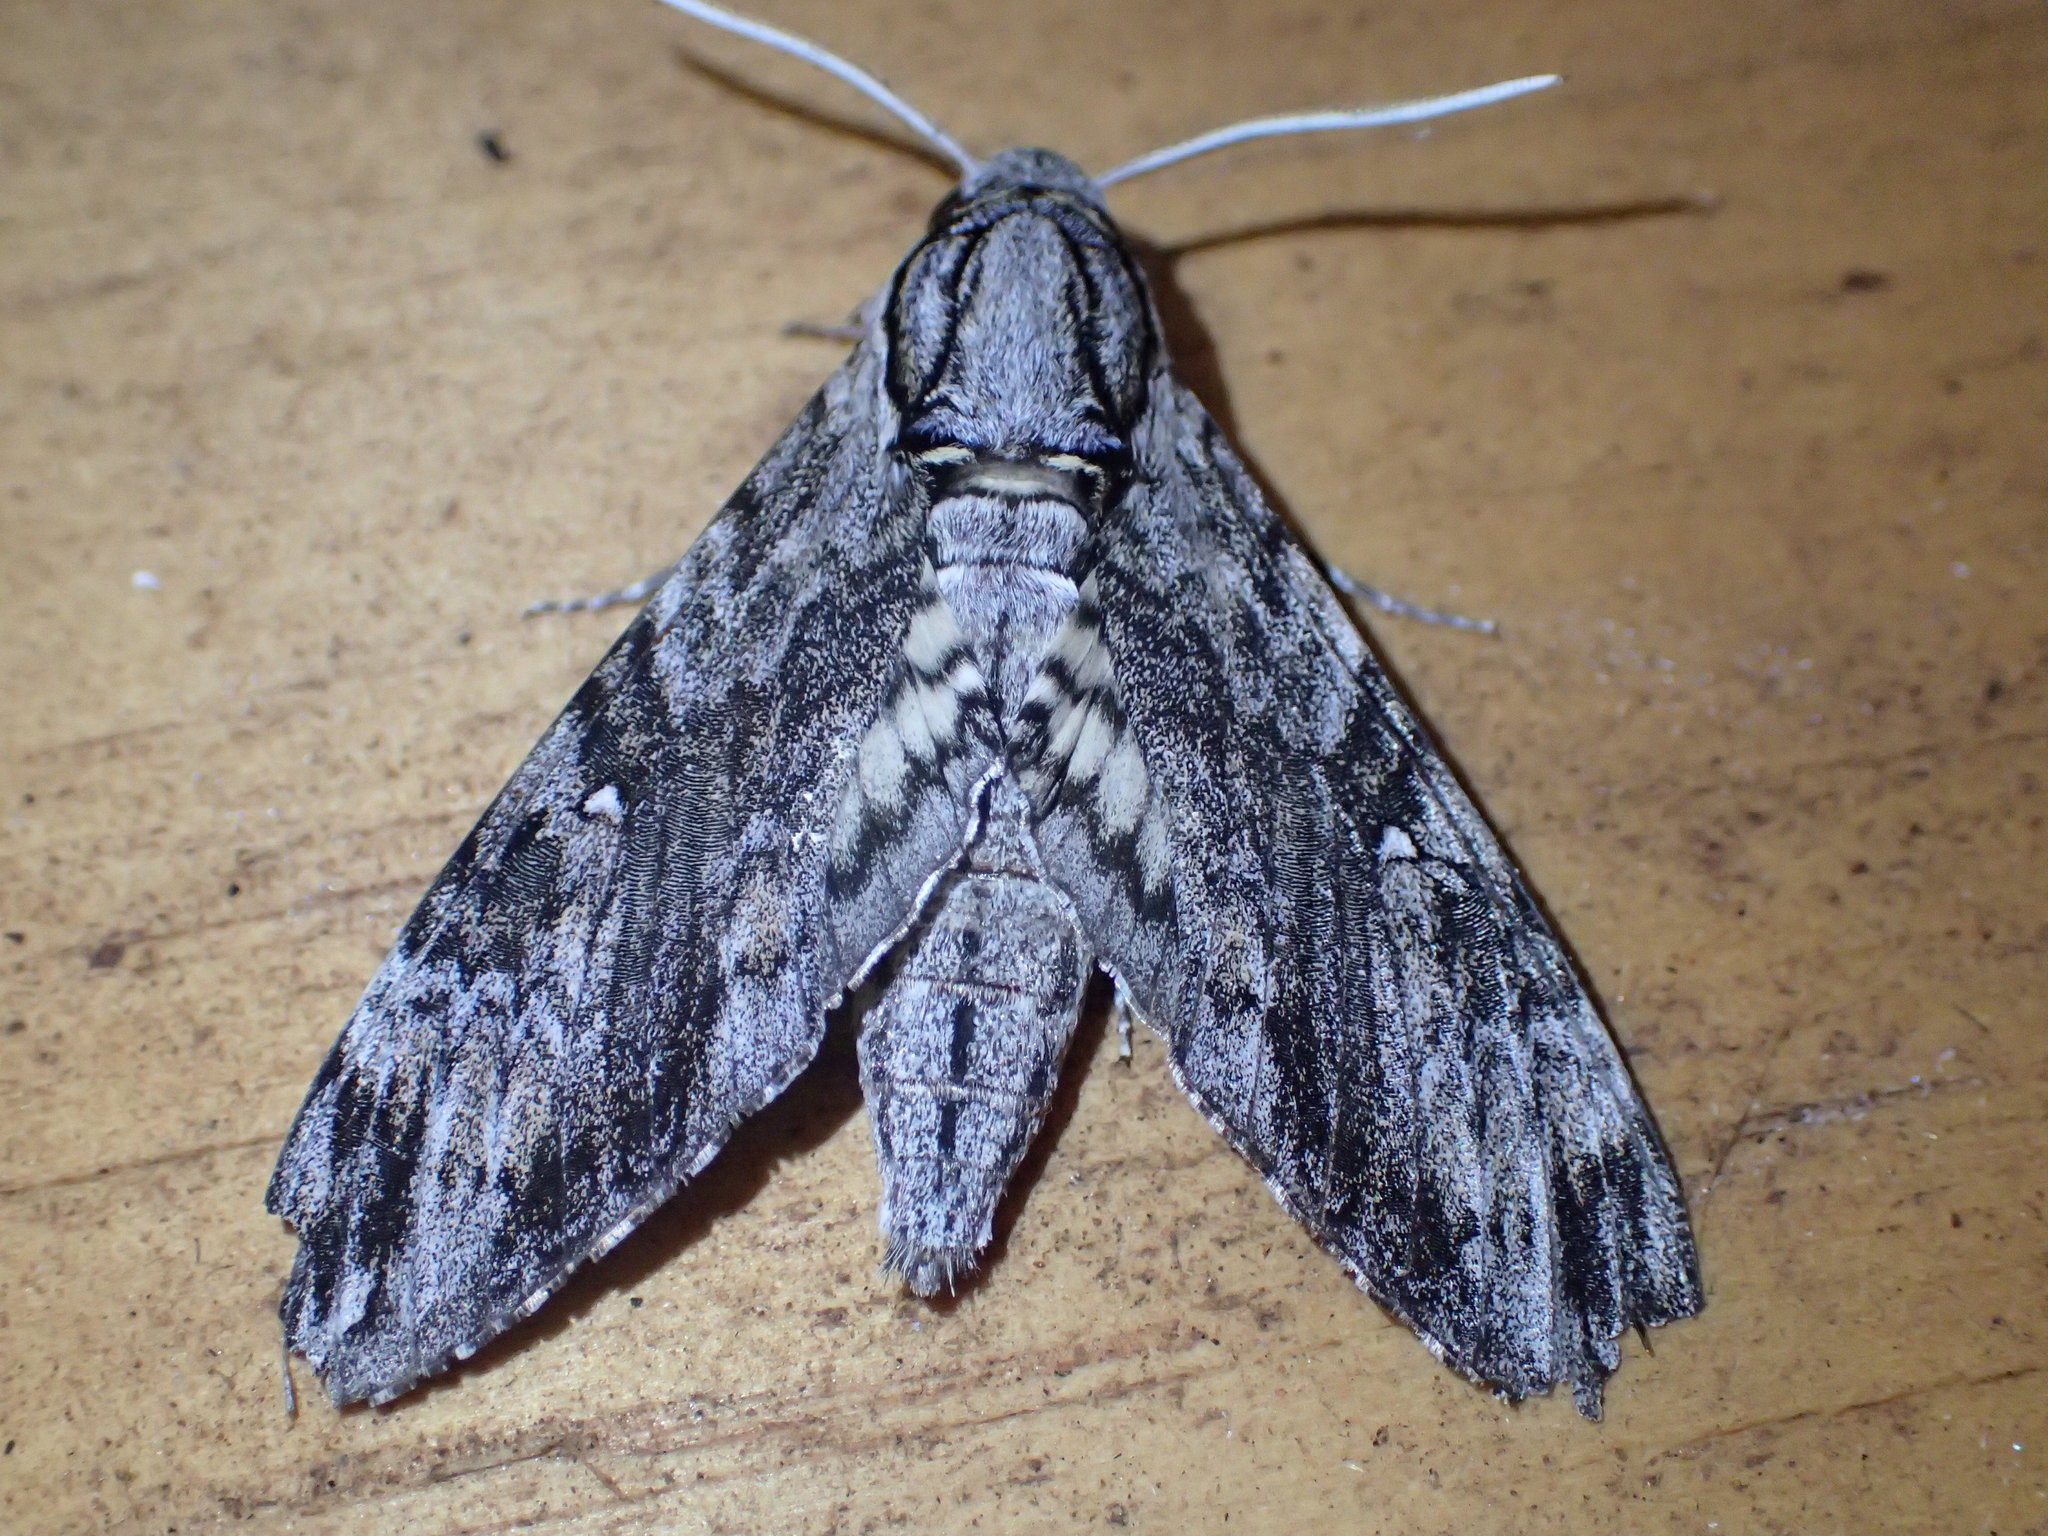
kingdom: Animalia
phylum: Arthropoda
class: Insecta
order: Lepidoptera
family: Sphingidae
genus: Agrius
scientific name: Agrius godarti
